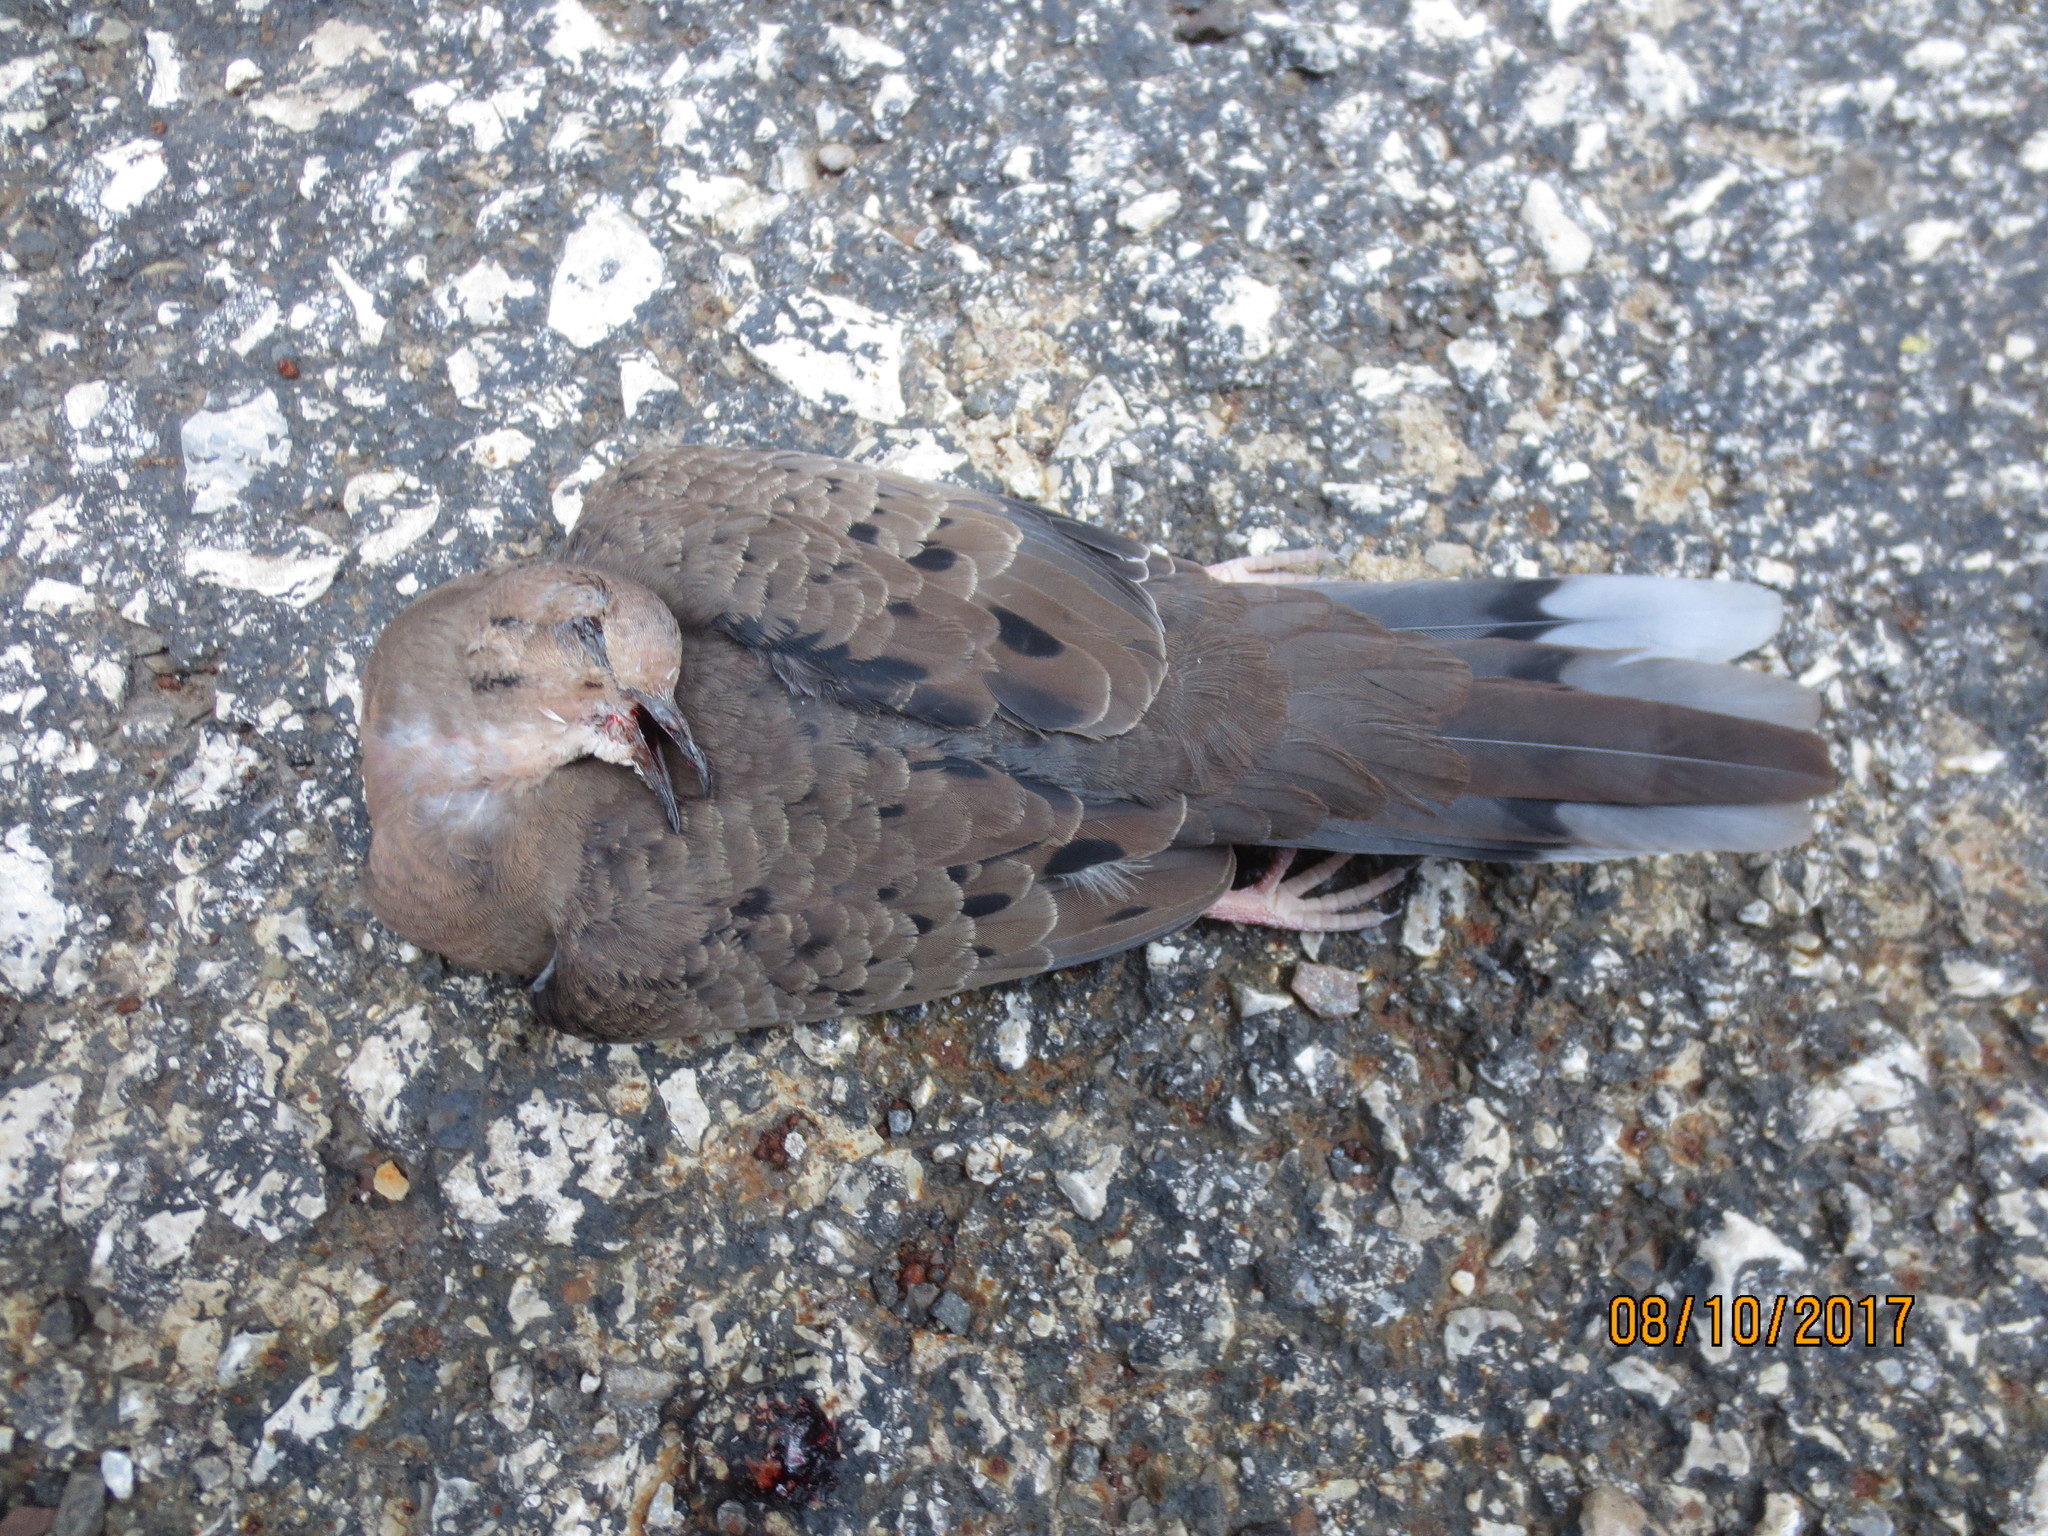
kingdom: Animalia
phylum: Chordata
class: Aves
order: Columbiformes
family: Columbidae
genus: Zenaida
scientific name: Zenaida macroura
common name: Mourning dove
